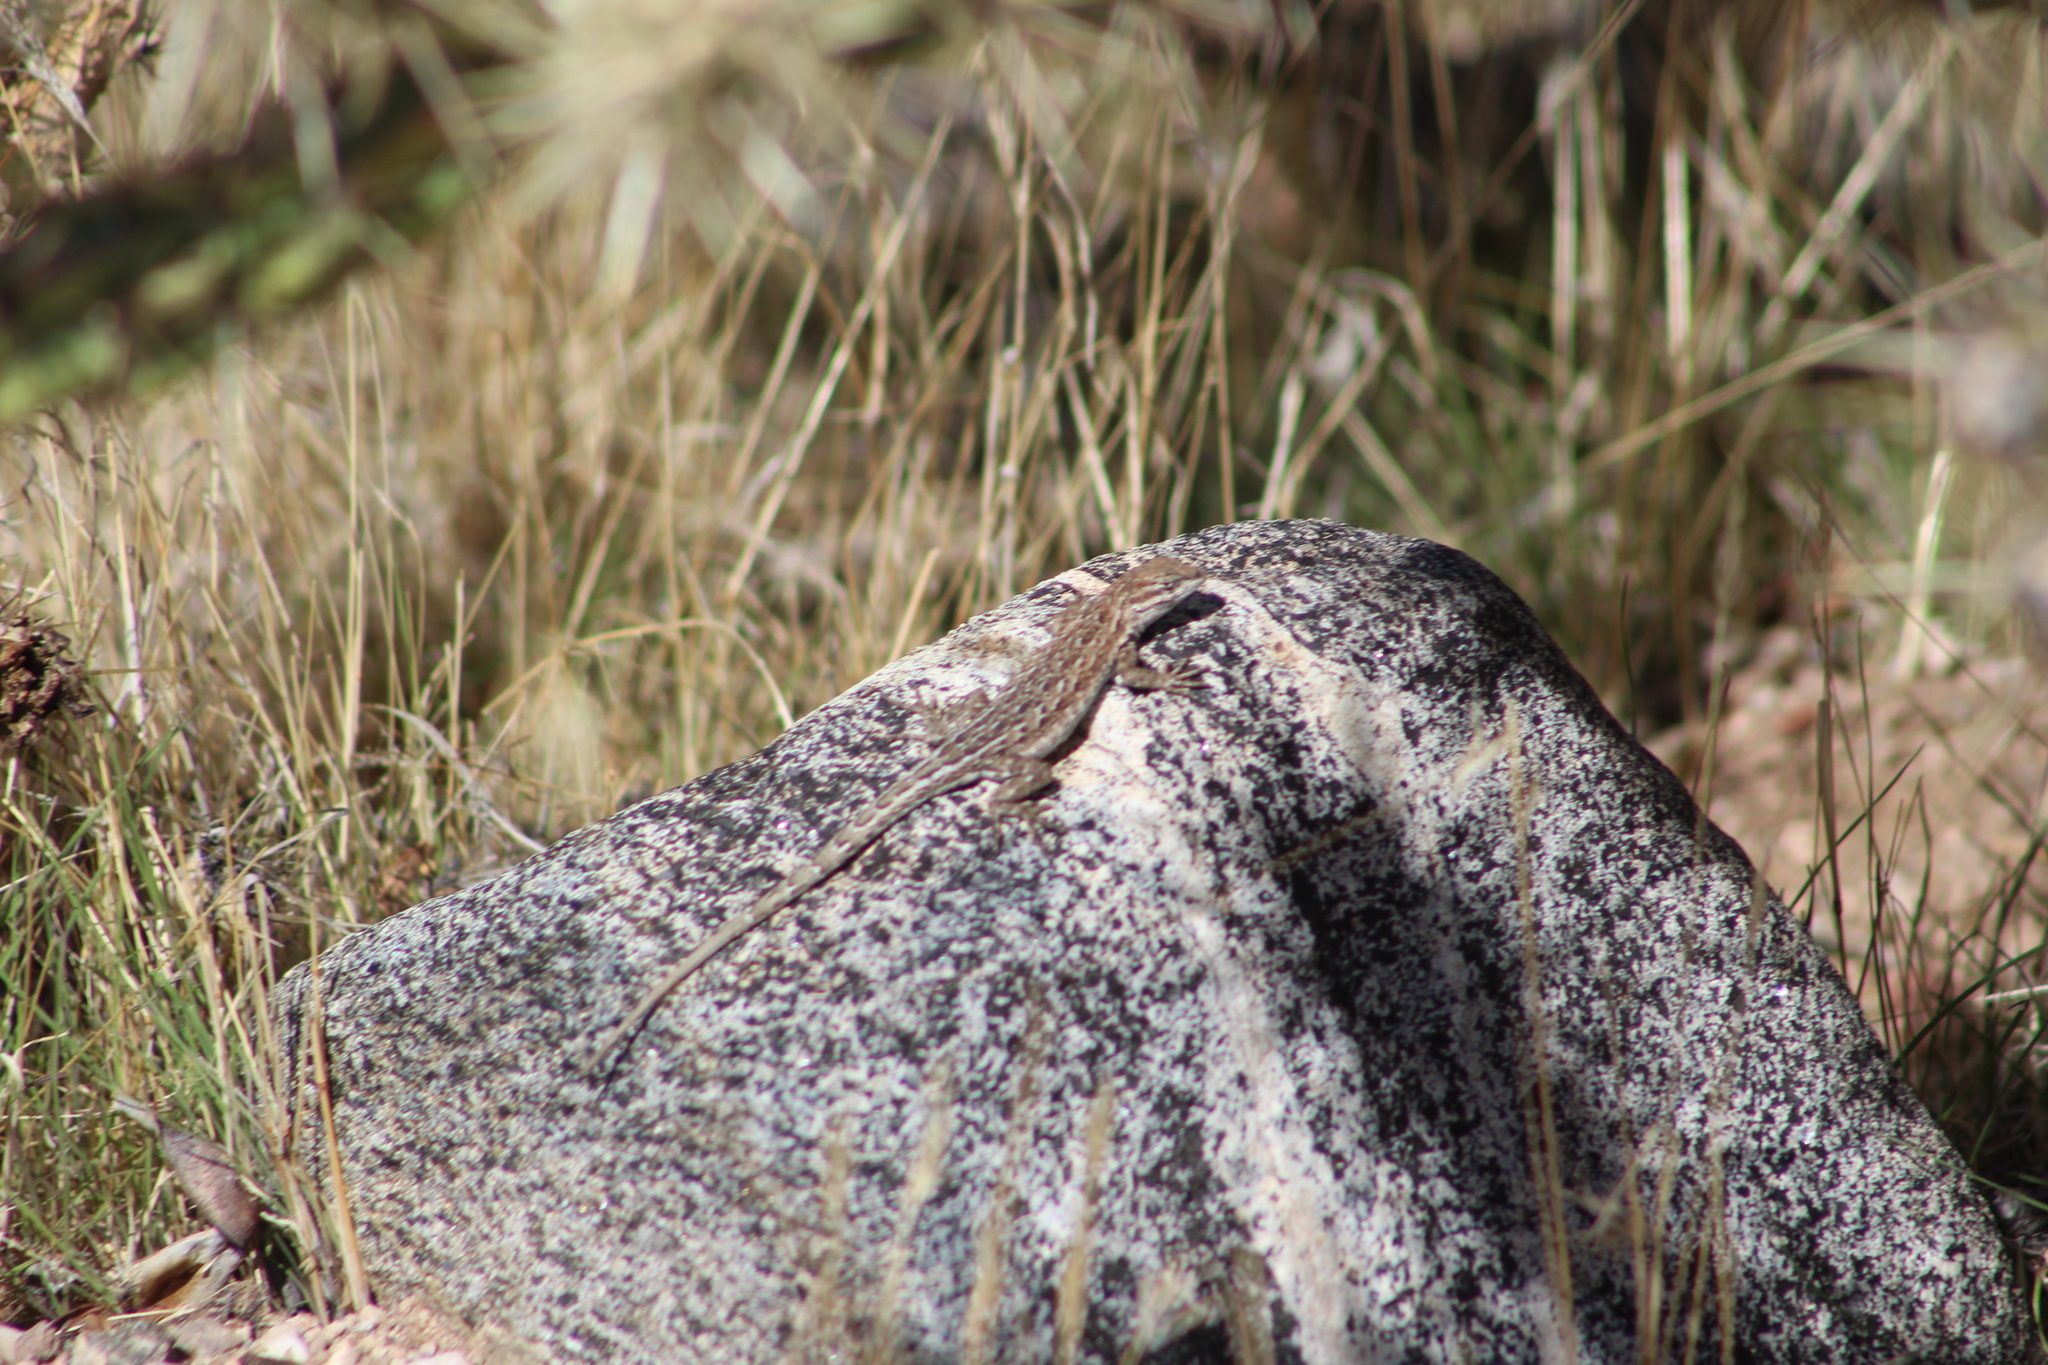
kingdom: Animalia
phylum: Chordata
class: Squamata
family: Phrynosomatidae
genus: Uta
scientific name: Uta stansburiana
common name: Side-blotched lizard
